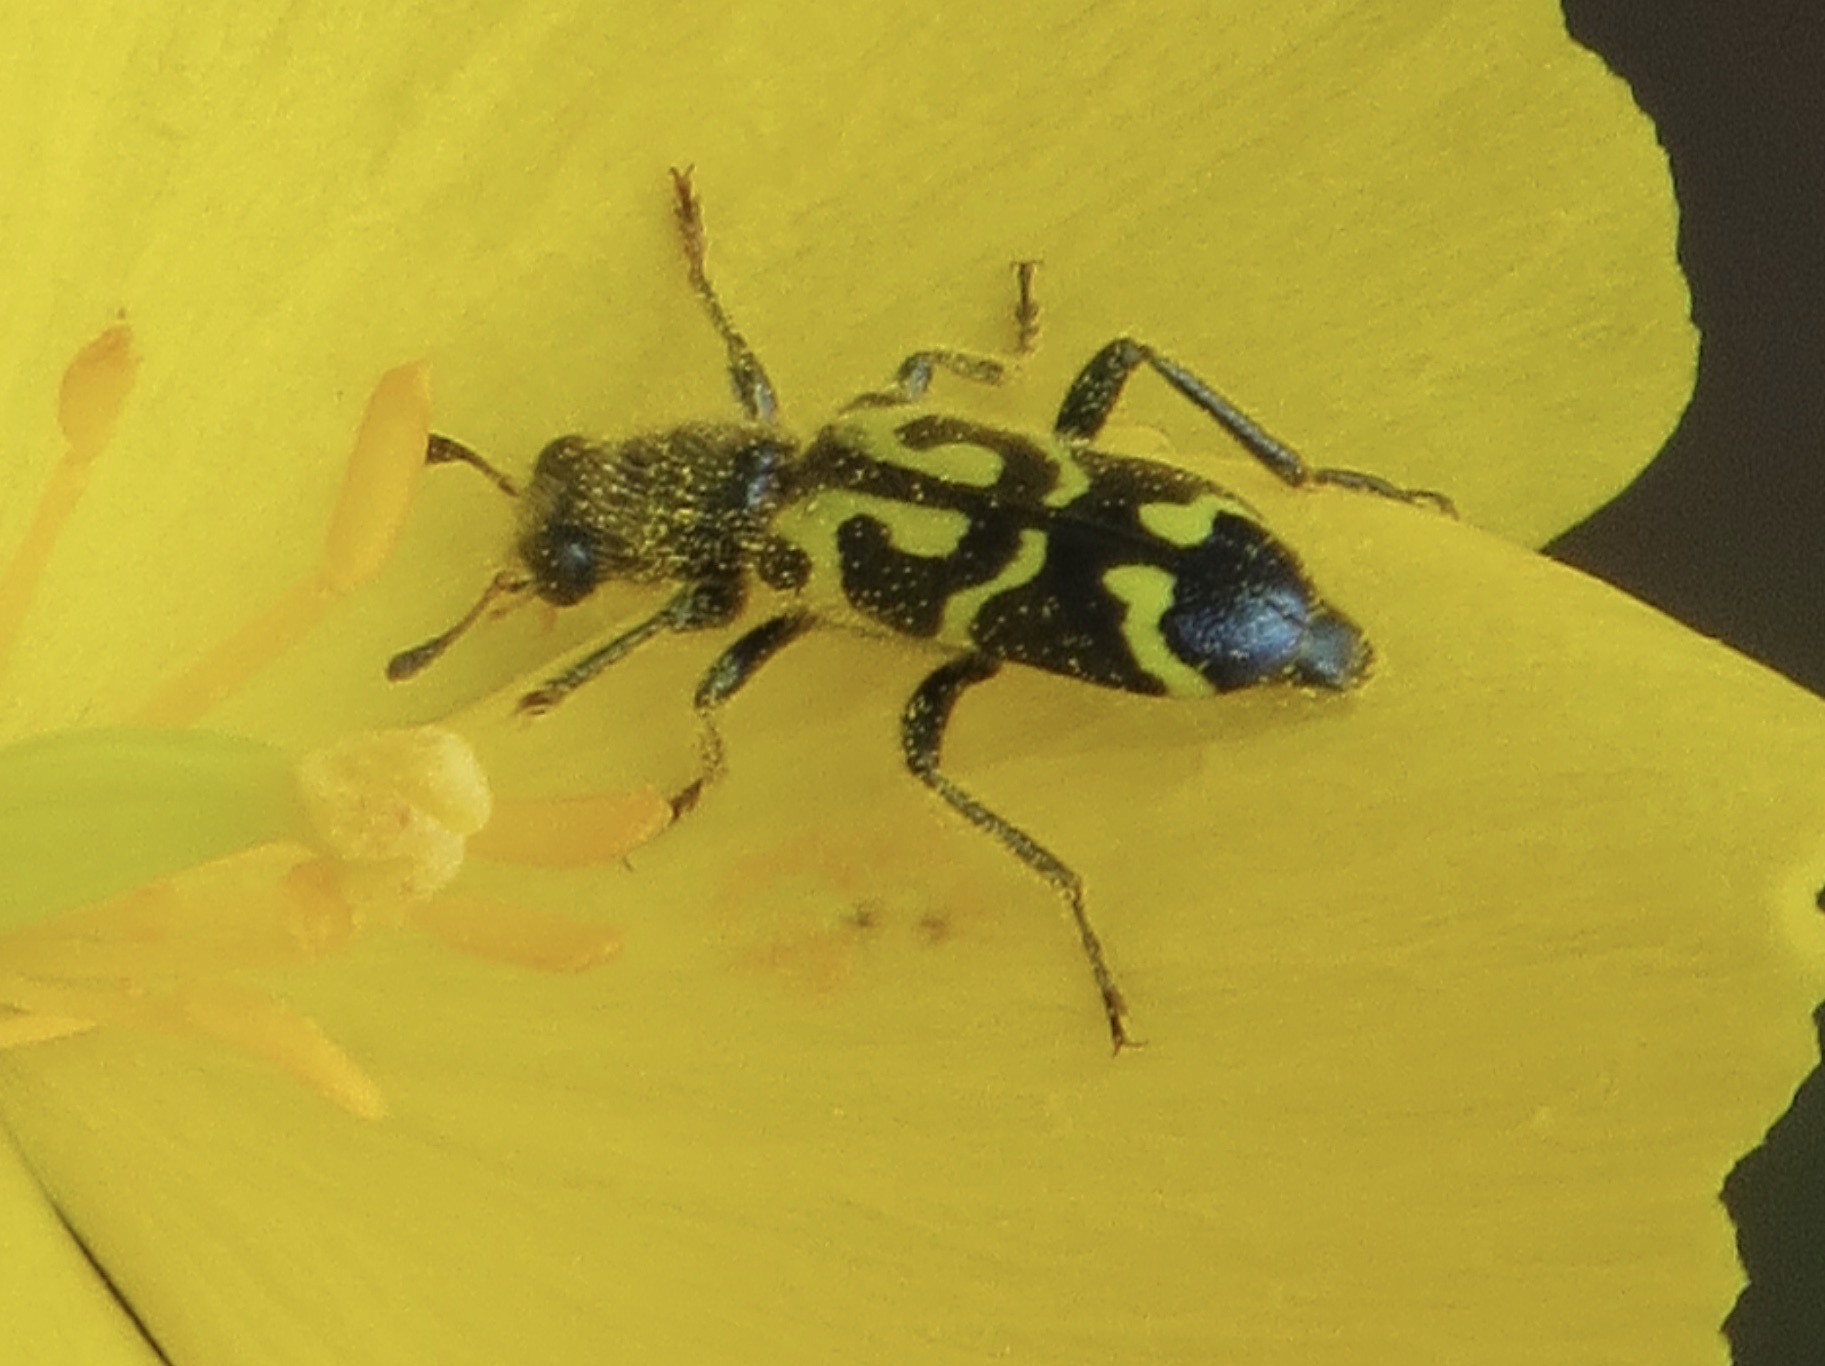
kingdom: Animalia
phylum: Arthropoda
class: Insecta
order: Coleoptera
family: Cleridae
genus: Trichodes
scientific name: Trichodes ornatus
